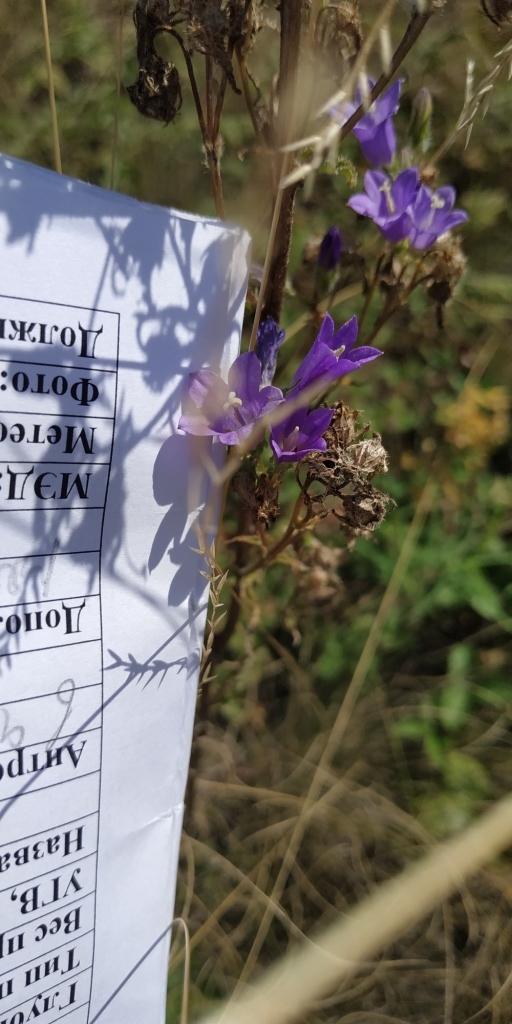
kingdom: Plantae
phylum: Tracheophyta
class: Magnoliopsida
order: Asterales
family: Campanulaceae
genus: Campanula
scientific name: Campanula sibirica
